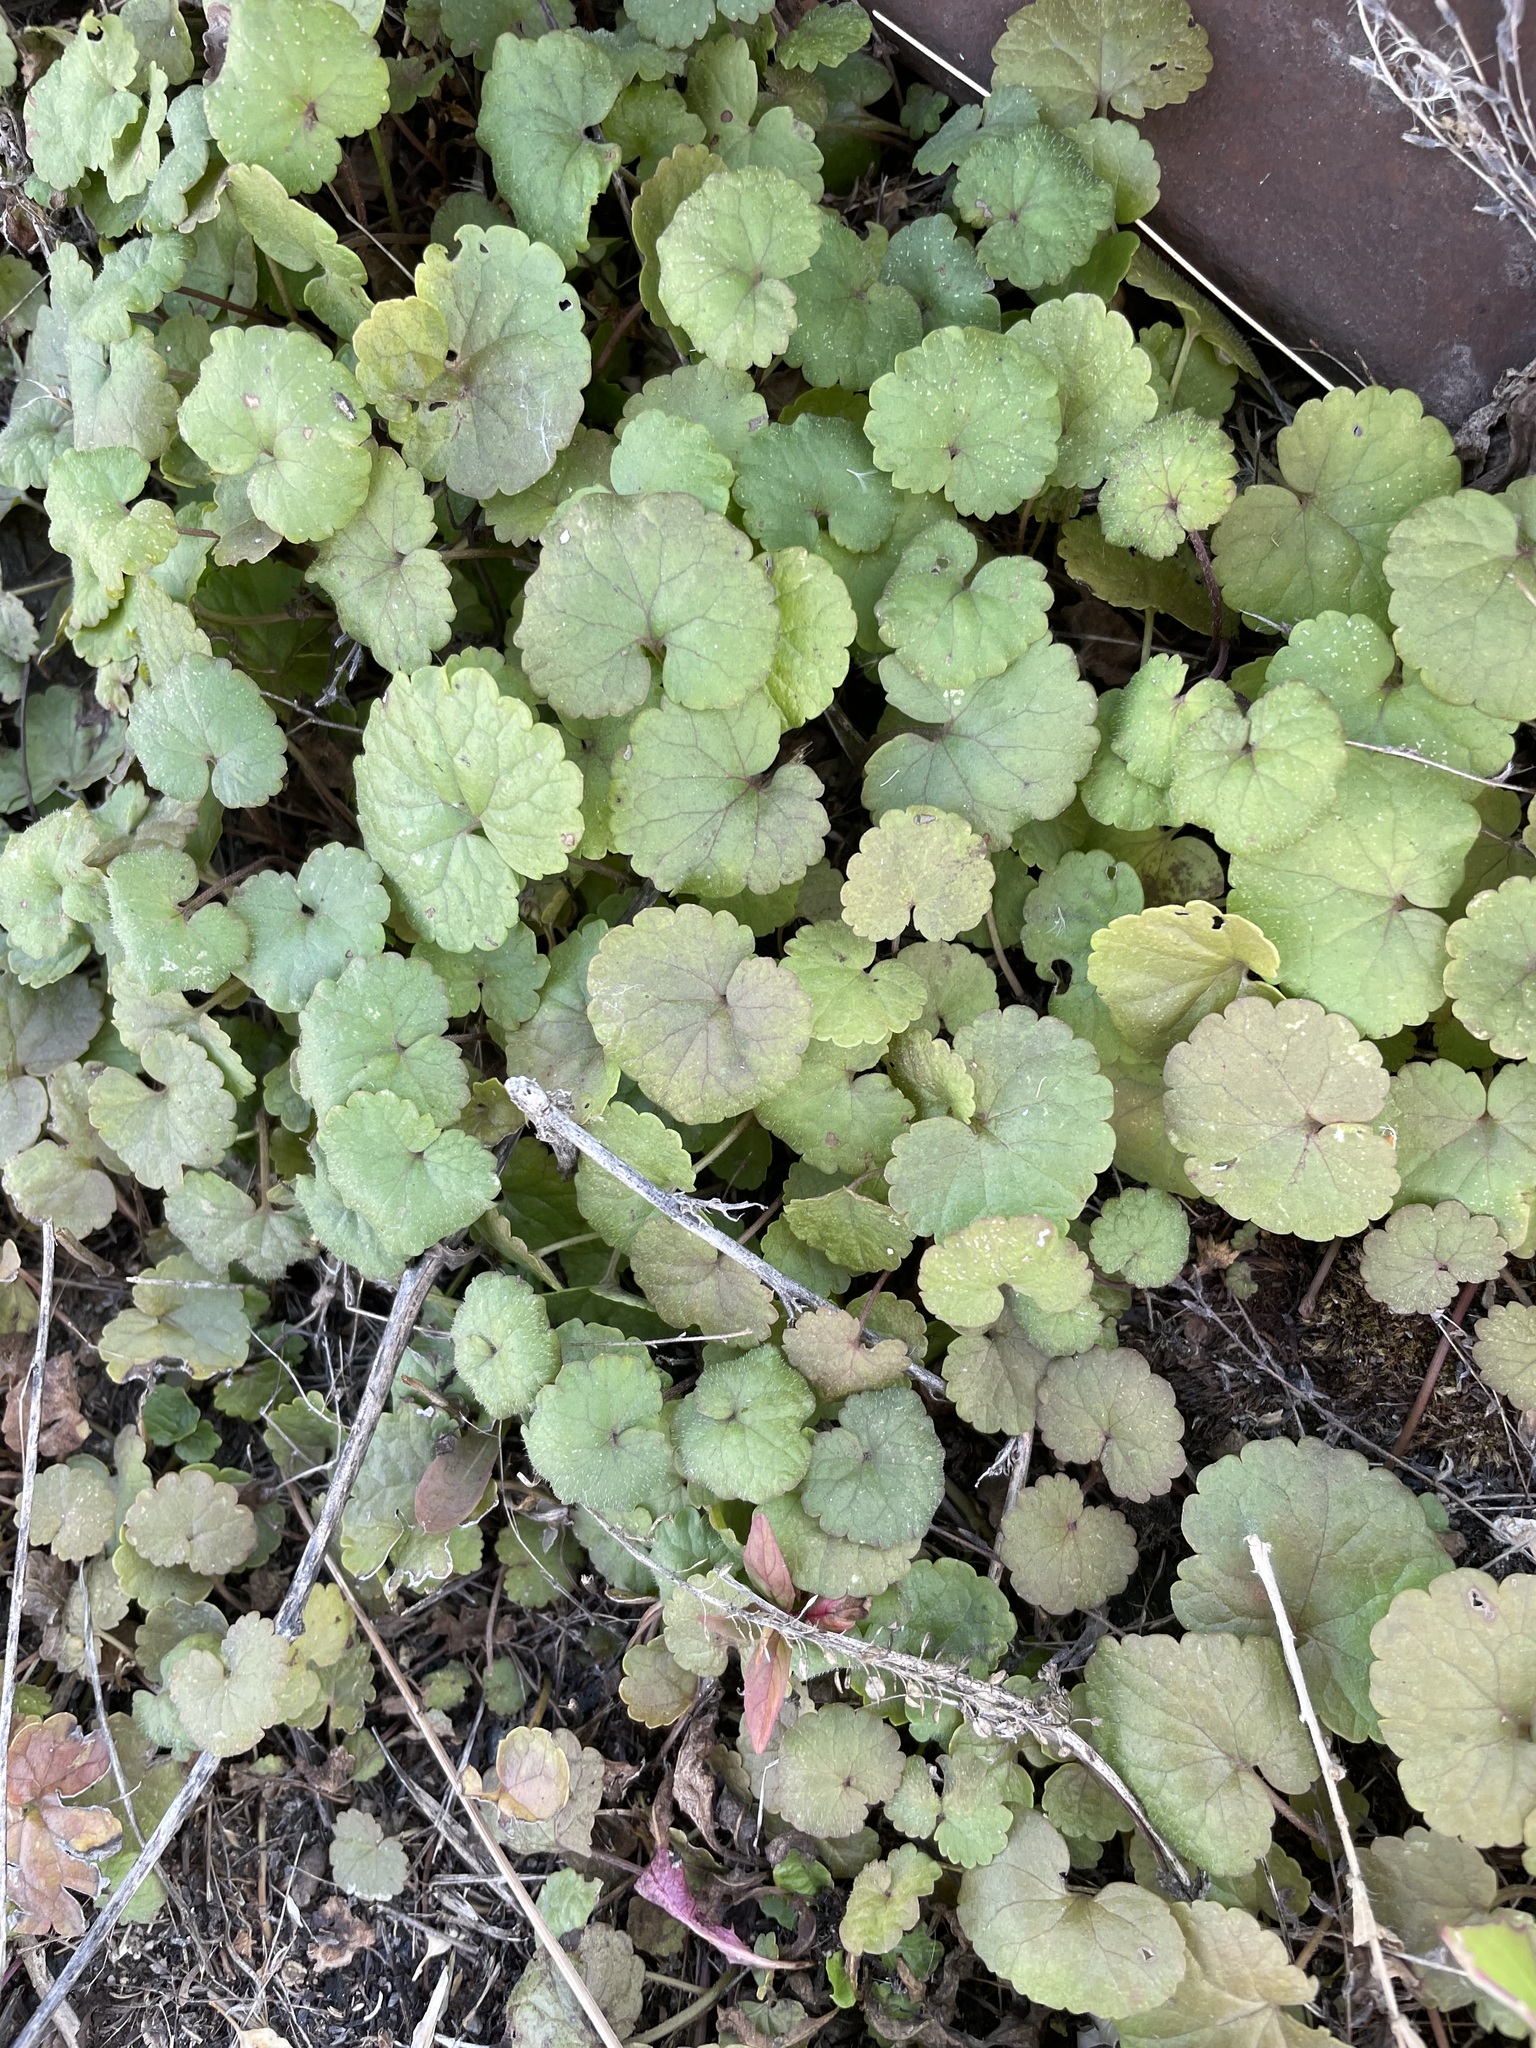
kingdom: Plantae
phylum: Tracheophyta
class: Magnoliopsida
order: Lamiales
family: Lamiaceae
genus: Glechoma
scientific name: Glechoma hederacea
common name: Ground ivy
